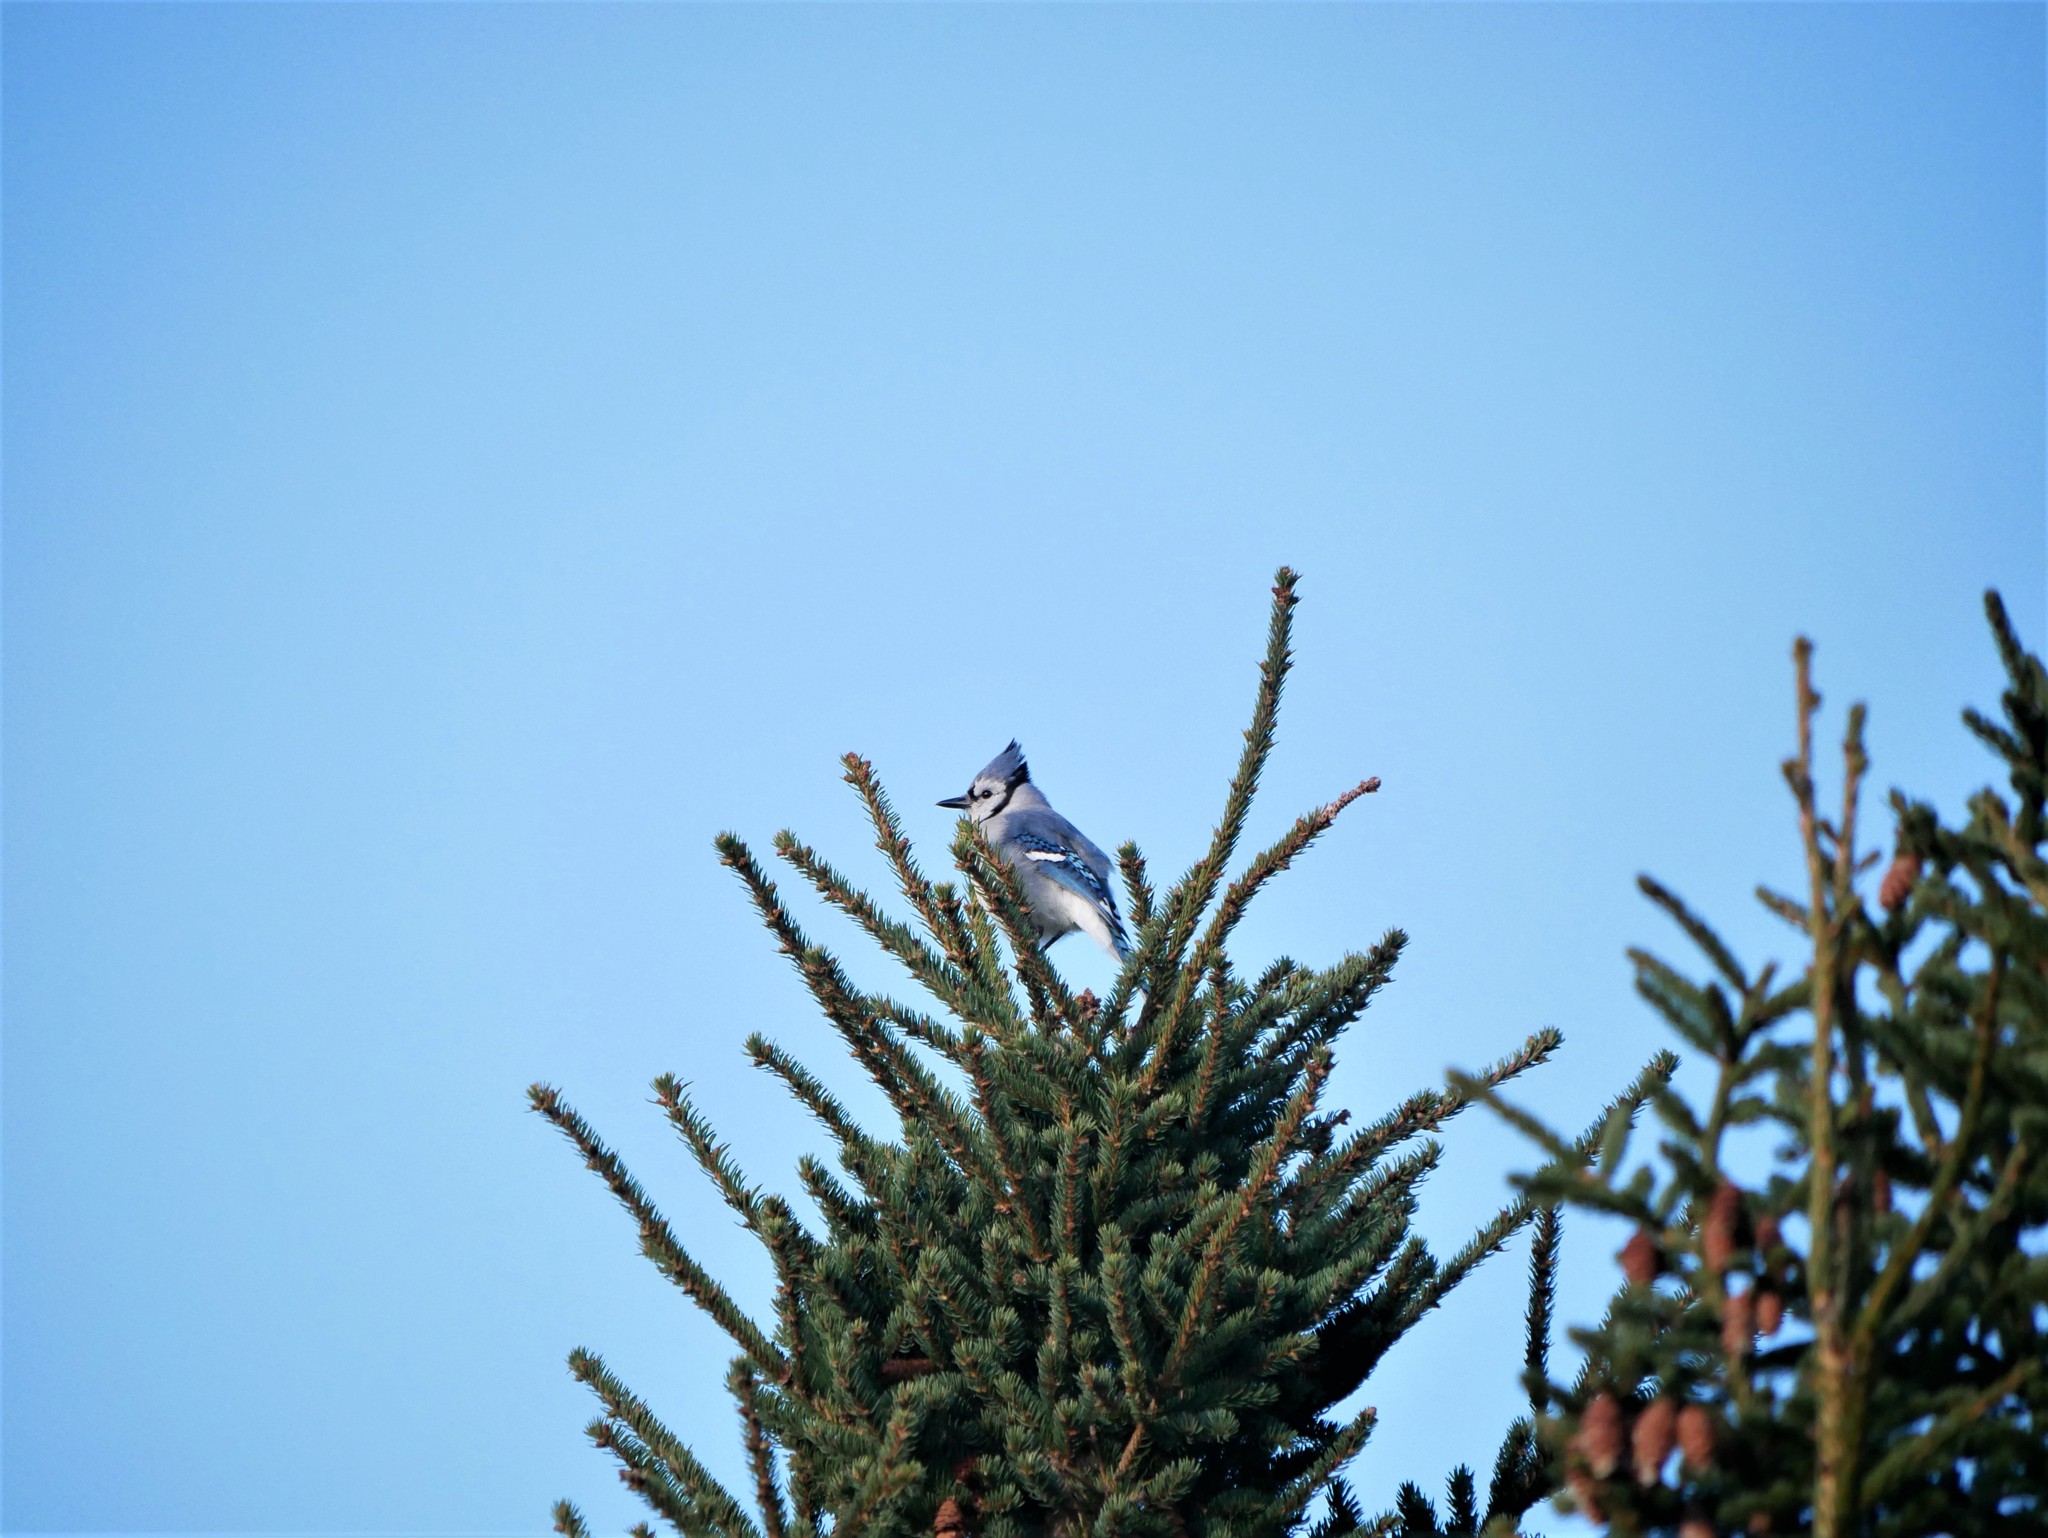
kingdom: Animalia
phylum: Chordata
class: Aves
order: Passeriformes
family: Corvidae
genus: Cyanocitta
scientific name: Cyanocitta cristata
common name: Blue jay
